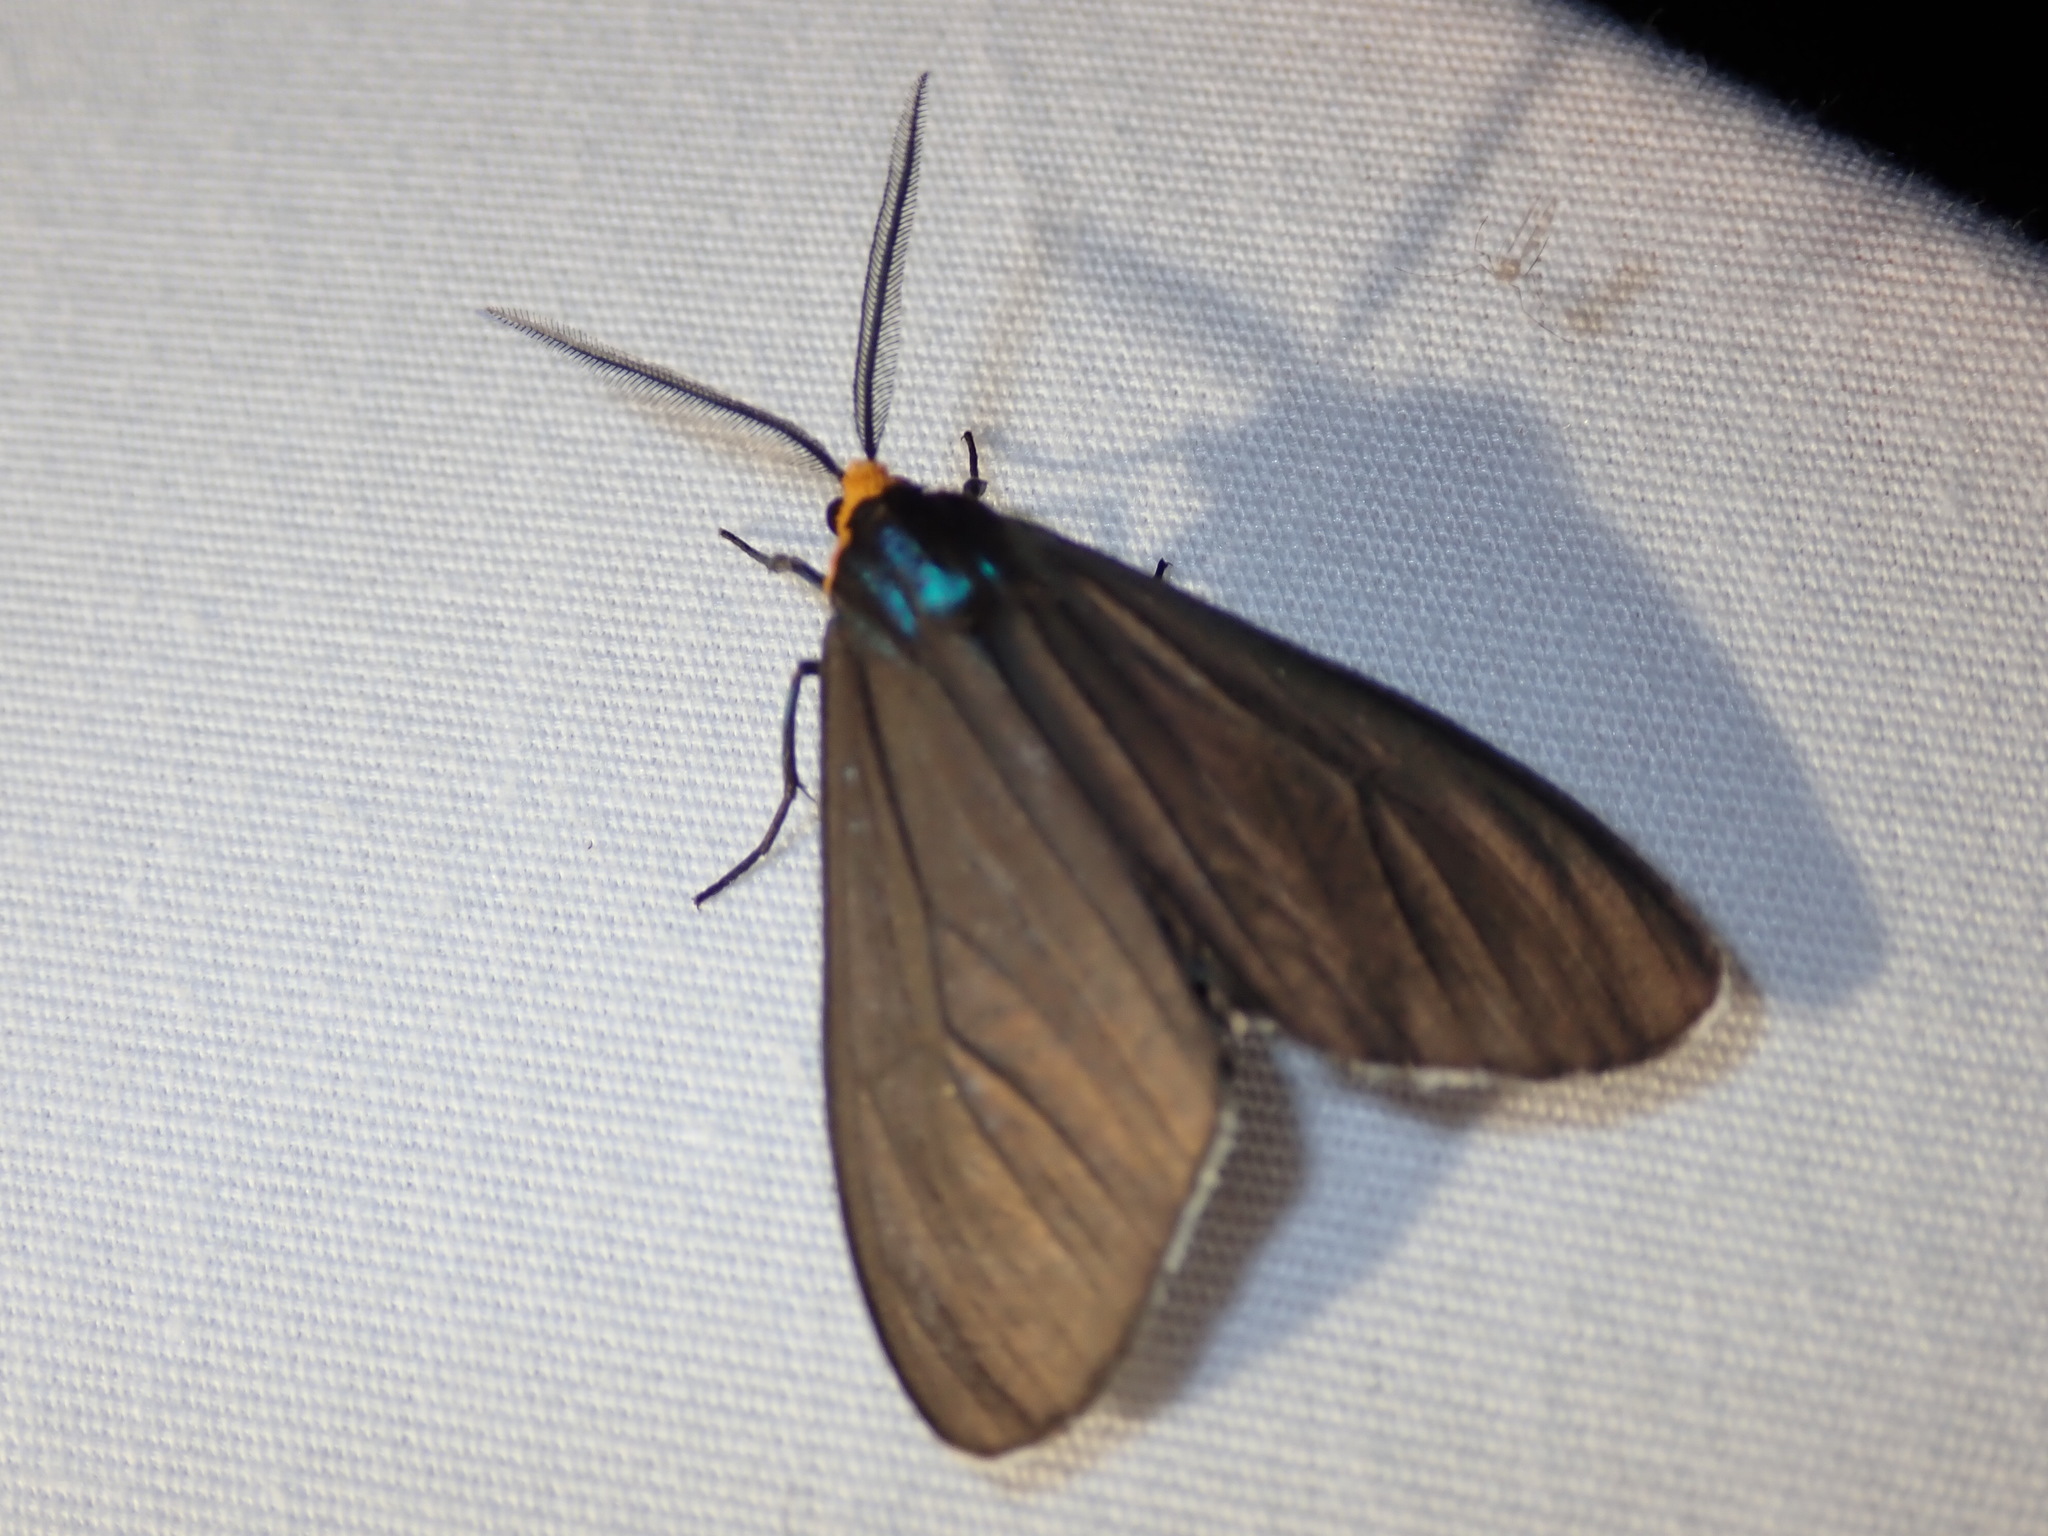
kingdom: Animalia
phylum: Arthropoda
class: Insecta
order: Lepidoptera
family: Erebidae
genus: Ctenucha
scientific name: Ctenucha virginica
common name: Virginia ctenucha moth
